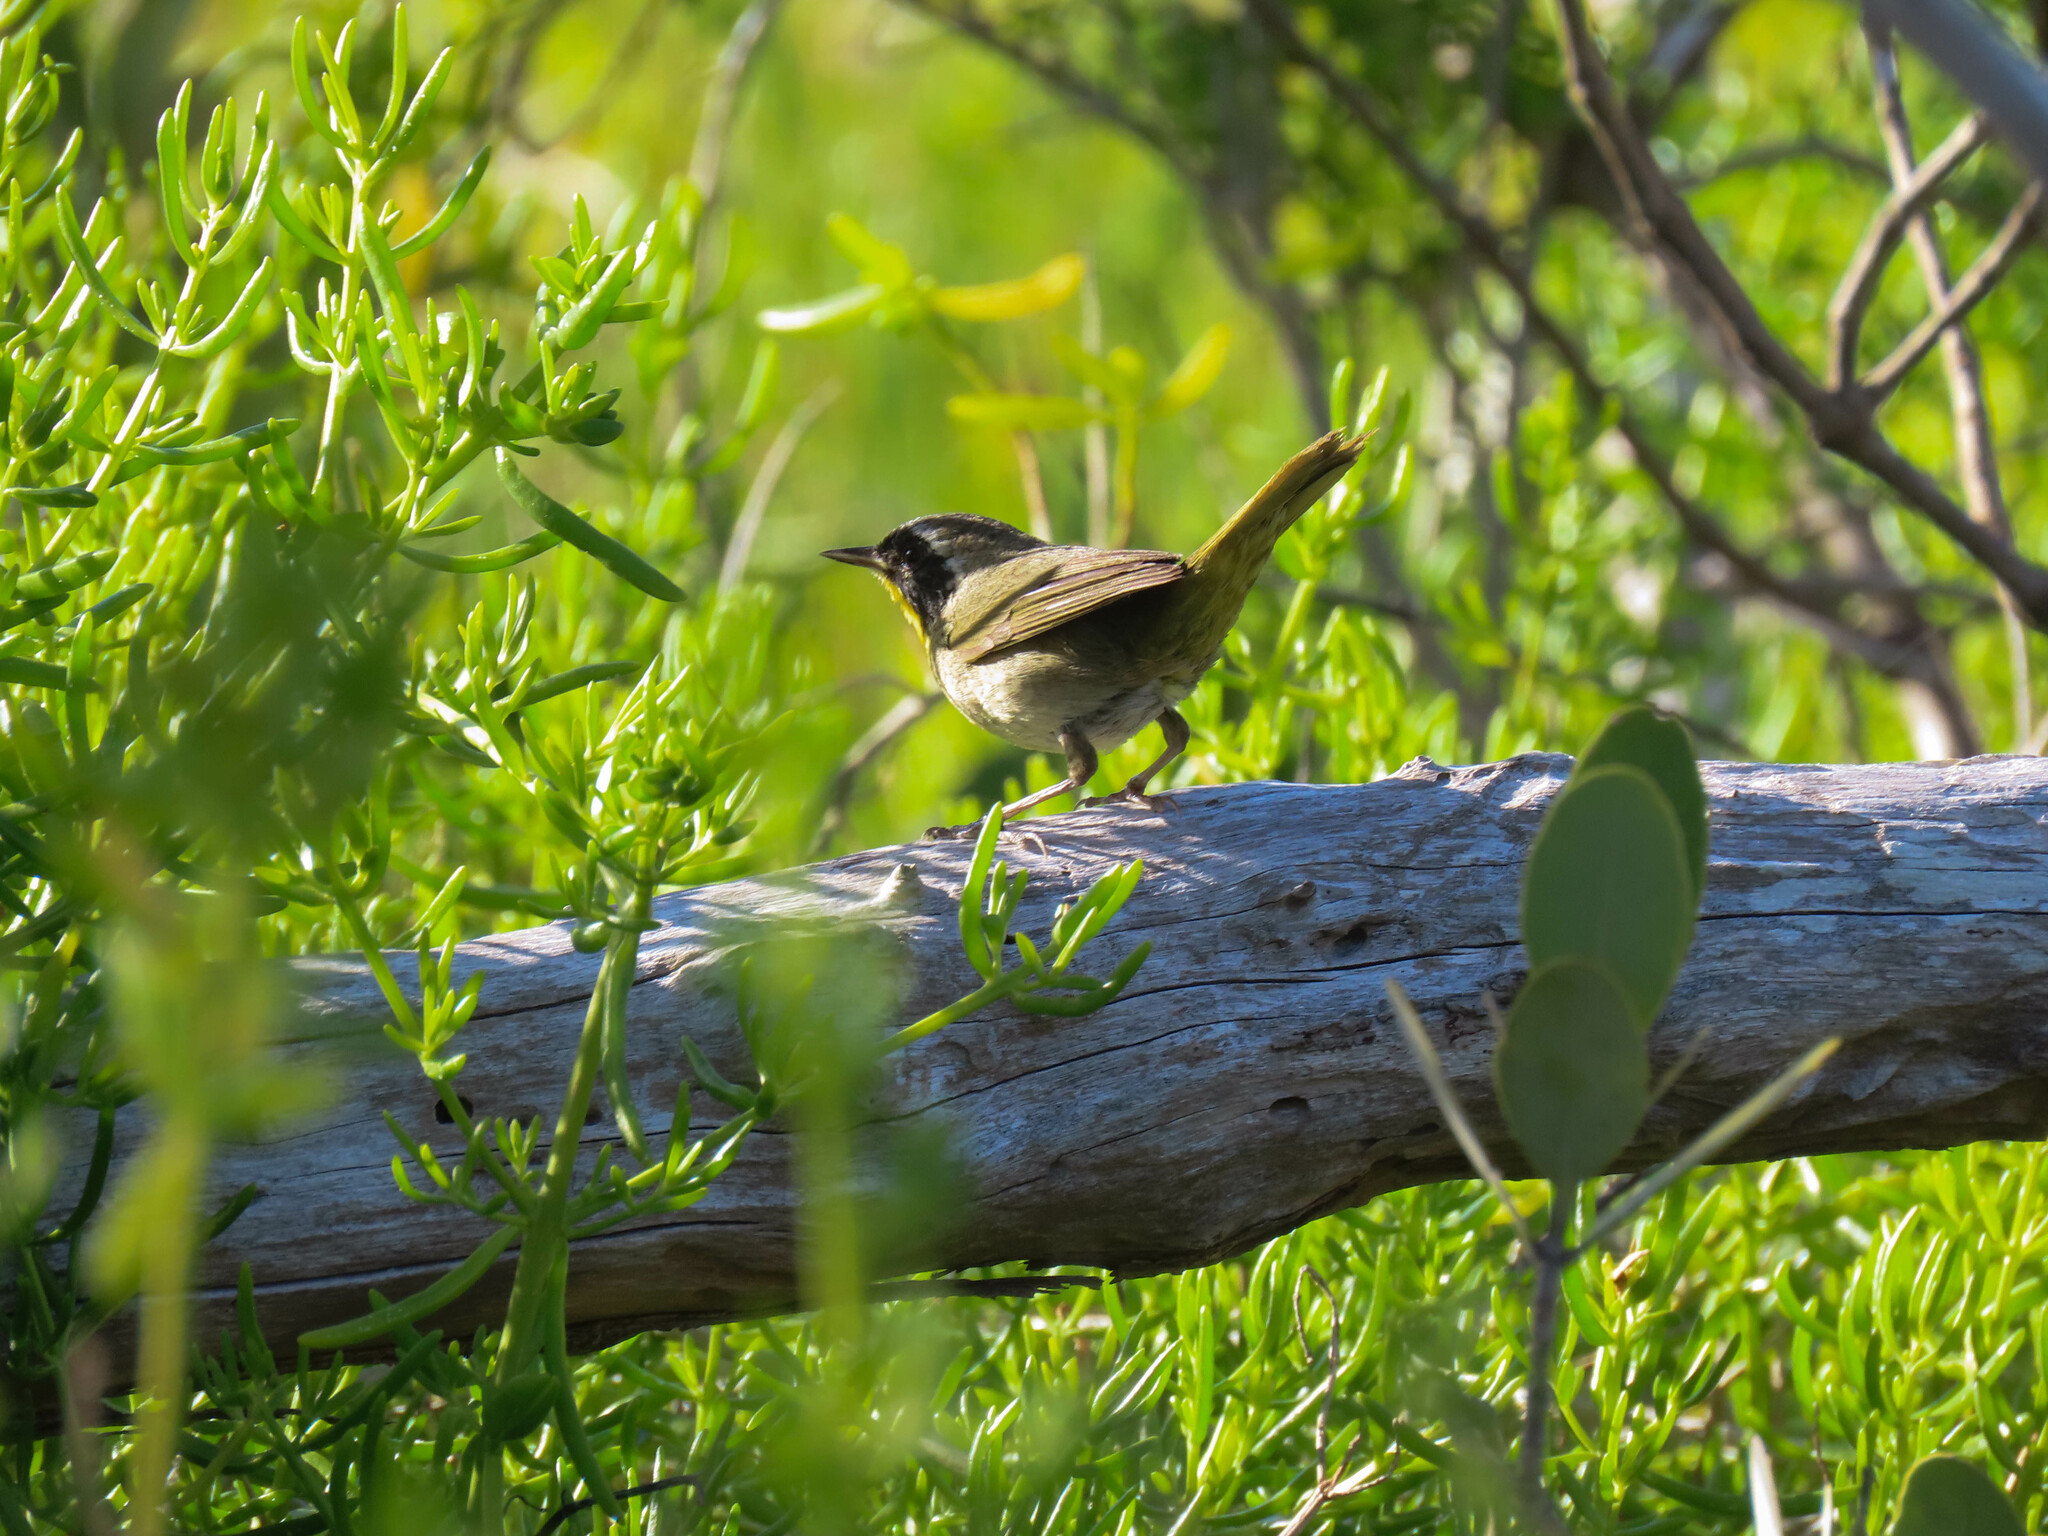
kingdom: Animalia
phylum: Chordata
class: Aves
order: Passeriformes
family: Parulidae
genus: Geothlypis
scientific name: Geothlypis trichas
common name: Common yellowthroat
